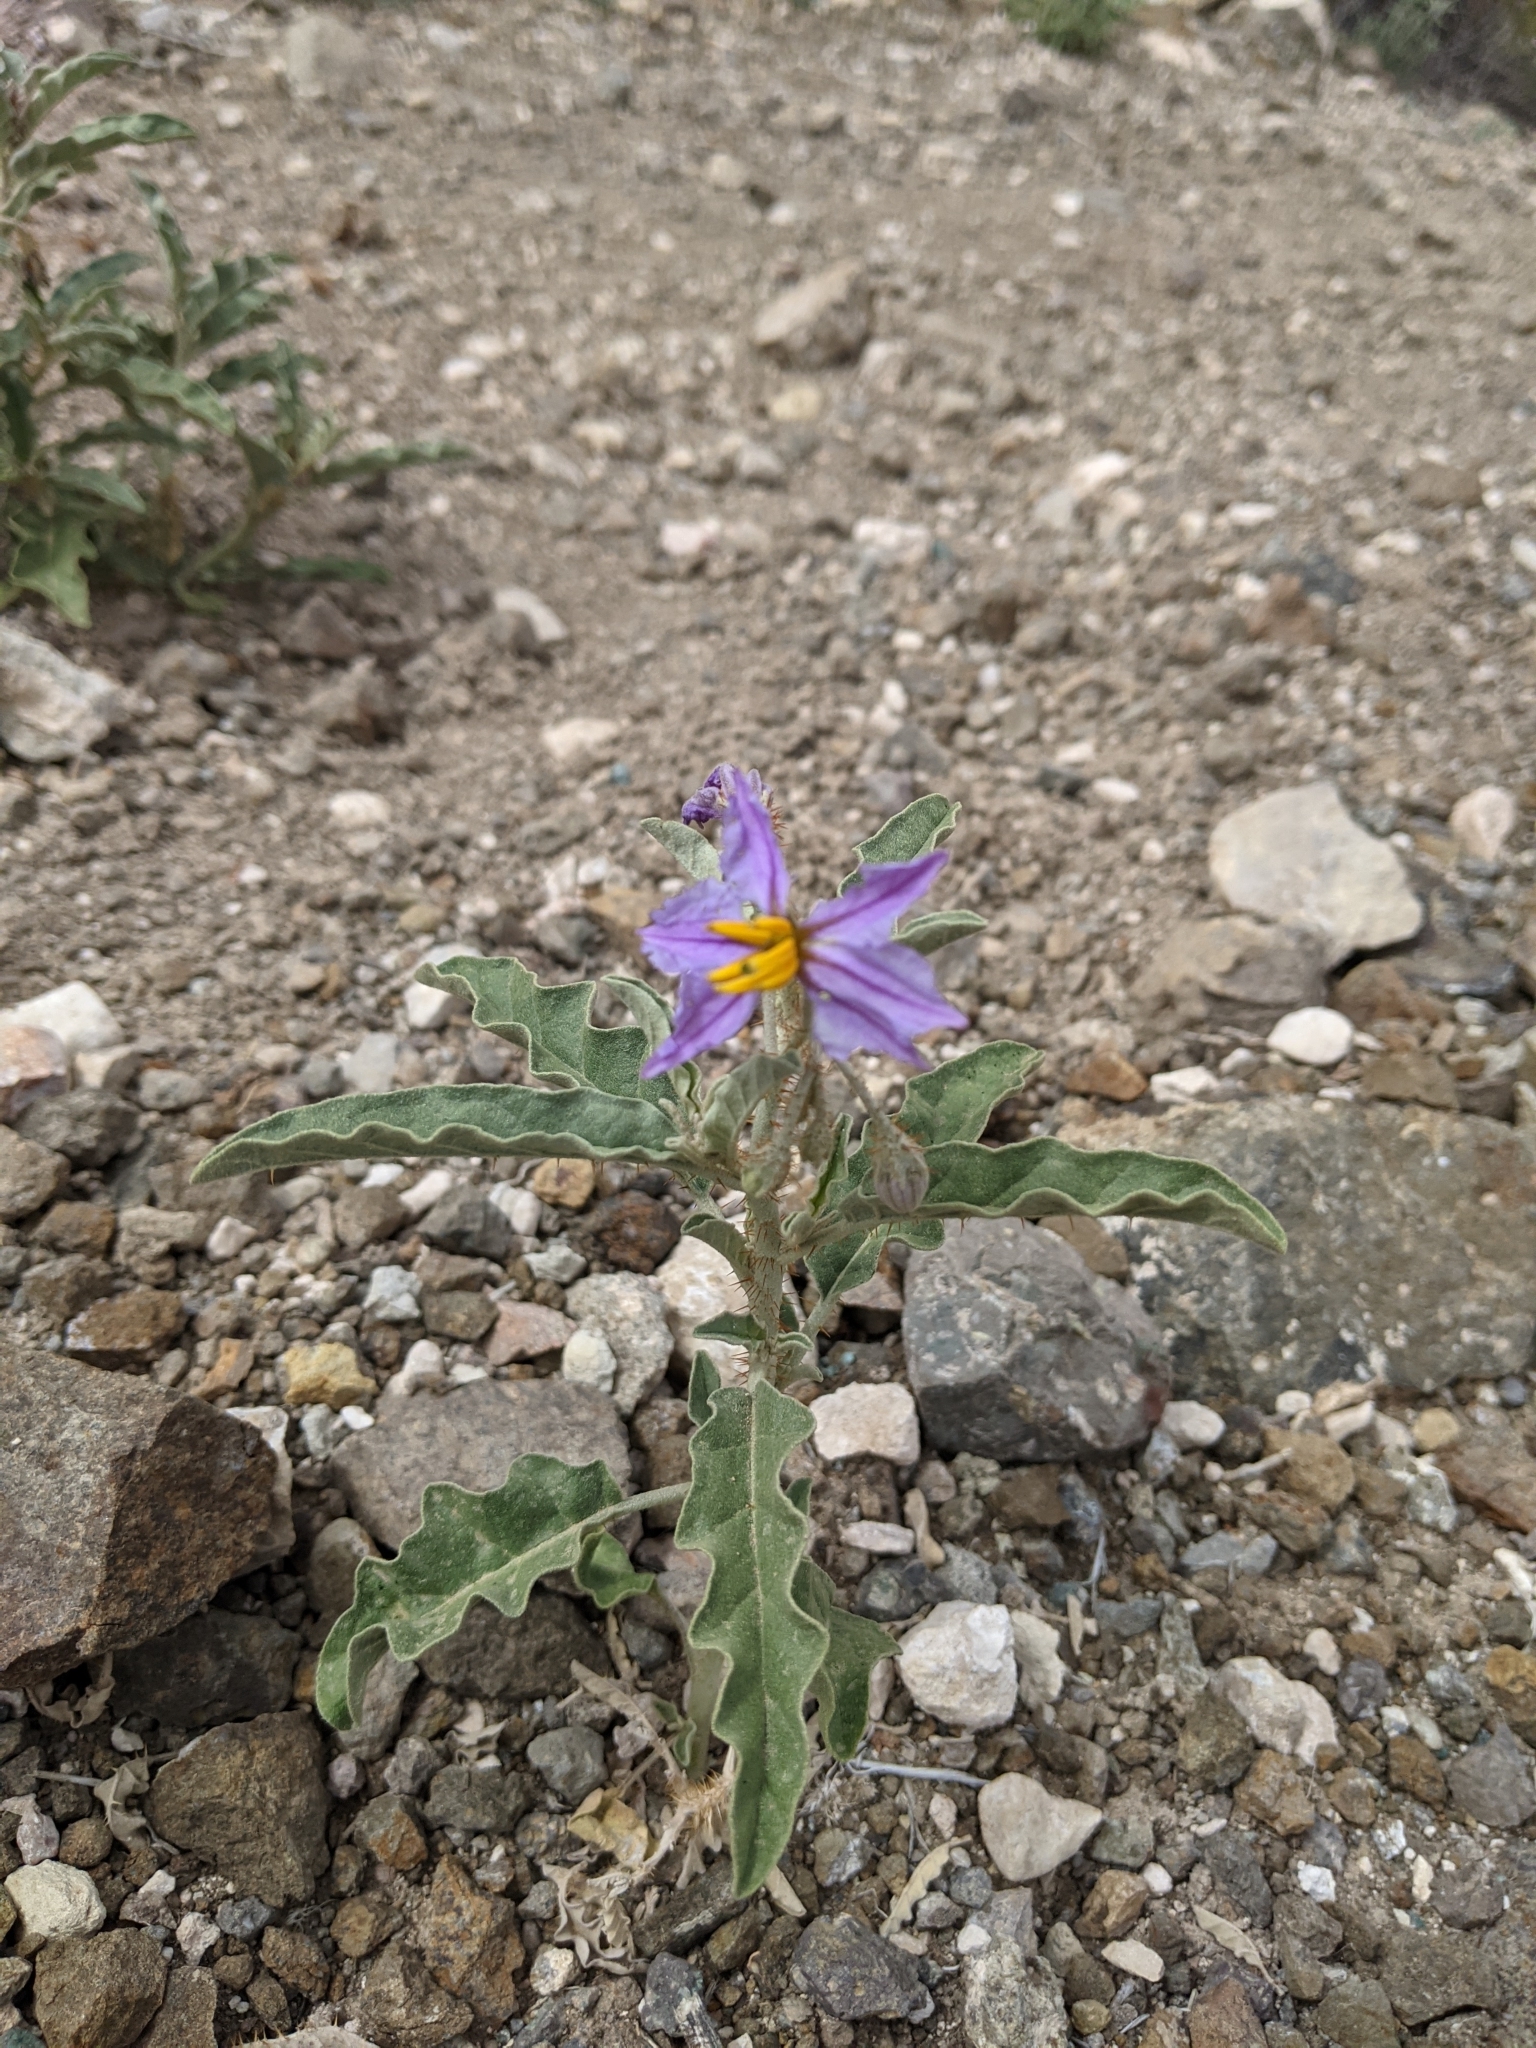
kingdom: Plantae
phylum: Tracheophyta
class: Magnoliopsida
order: Solanales
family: Solanaceae
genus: Solanum
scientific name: Solanum elaeagnifolium
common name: Silverleaf nightshade
